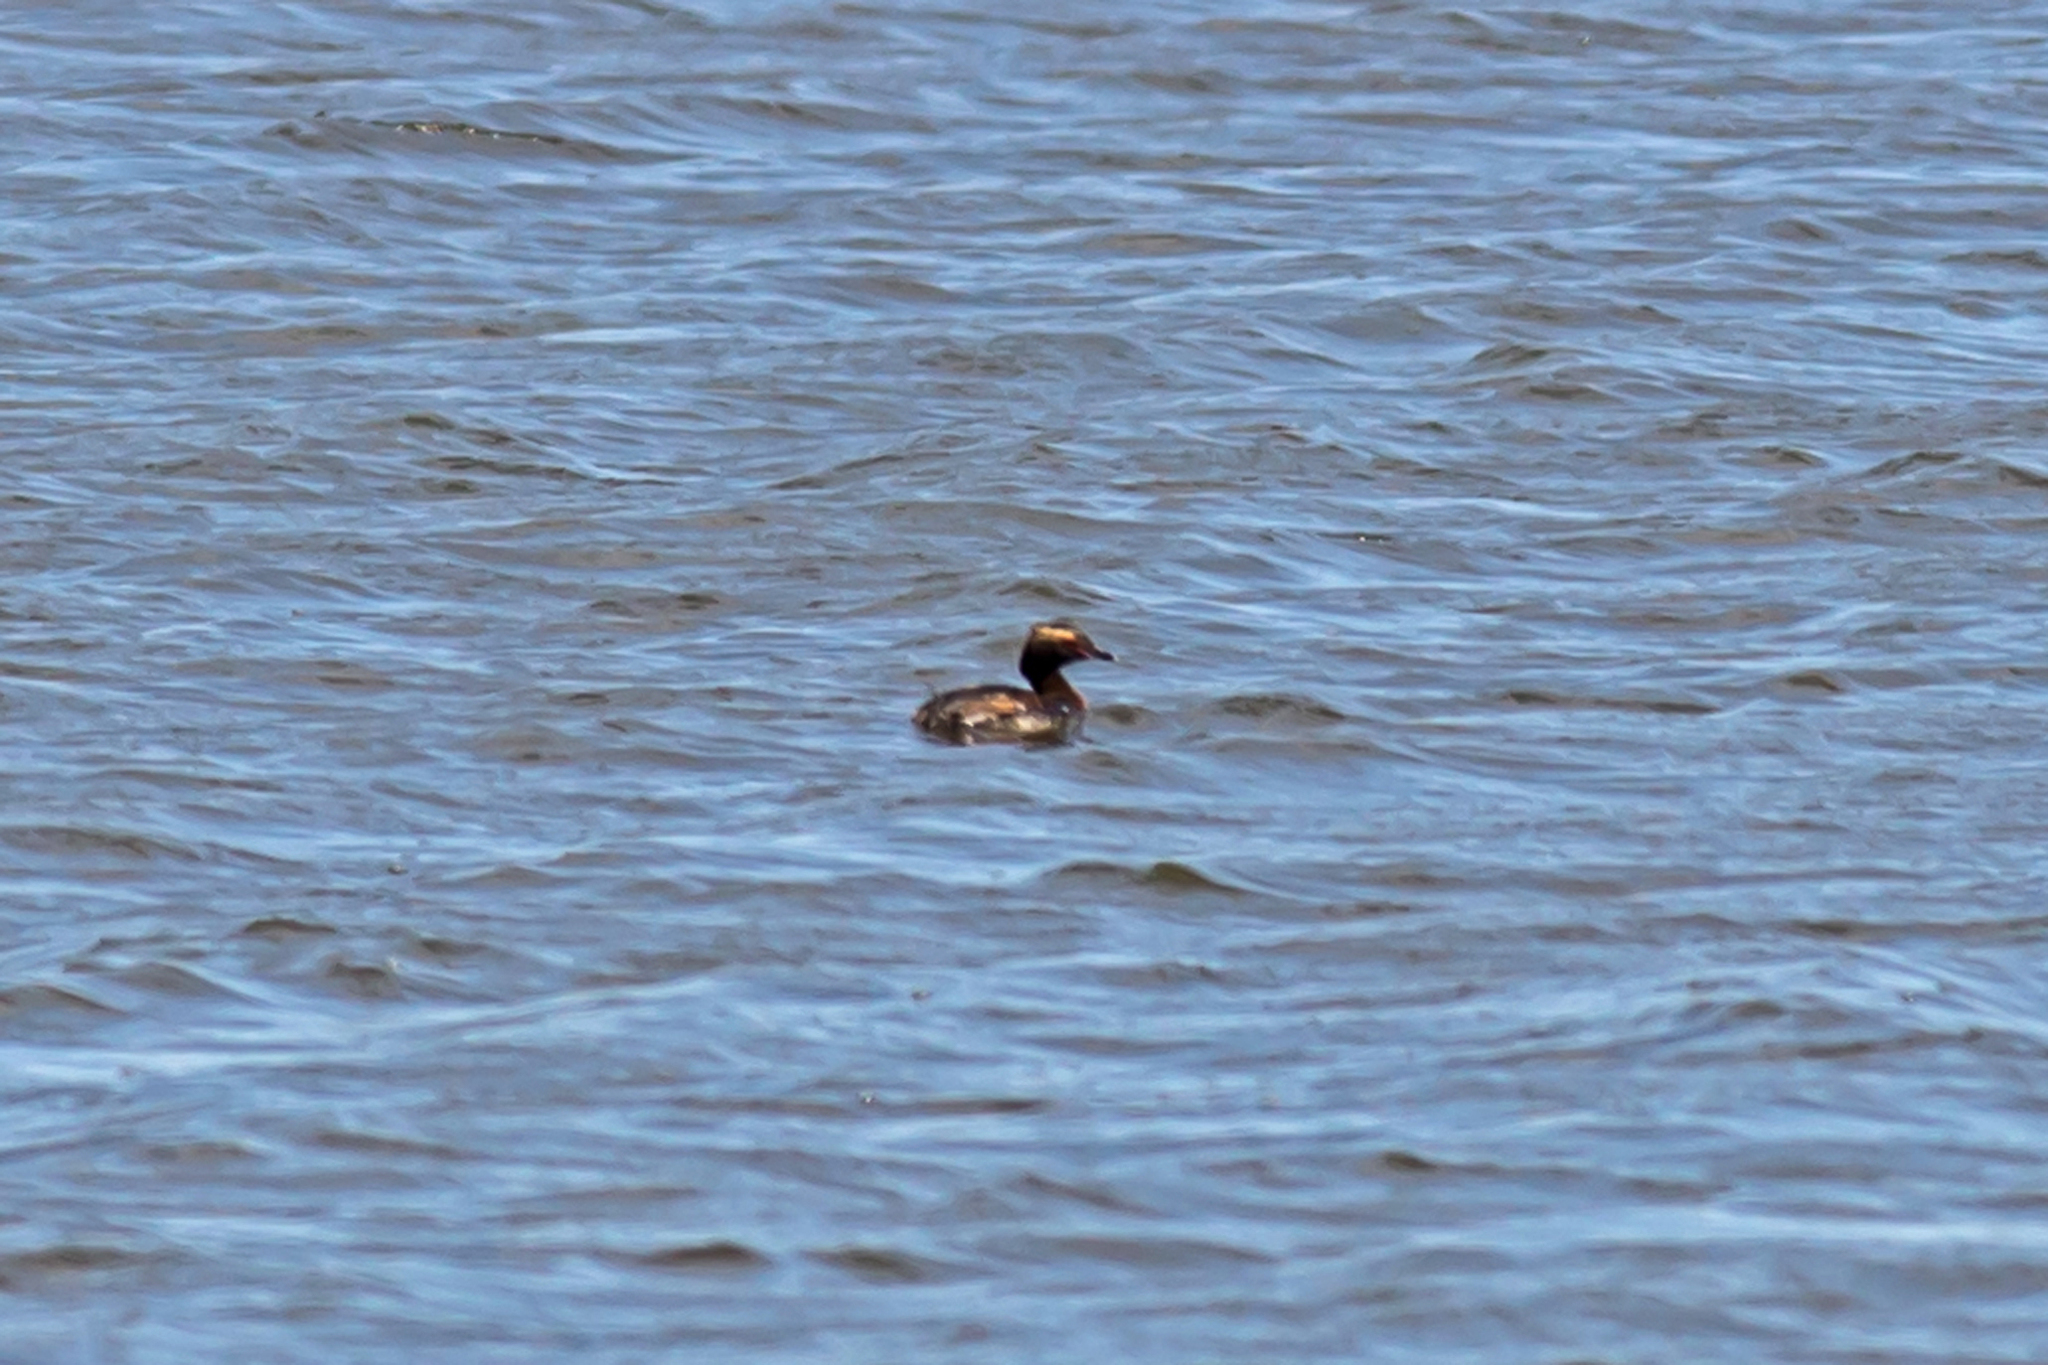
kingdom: Animalia
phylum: Chordata
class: Aves
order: Podicipediformes
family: Podicipedidae
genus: Podiceps
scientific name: Podiceps auritus
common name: Horned grebe
